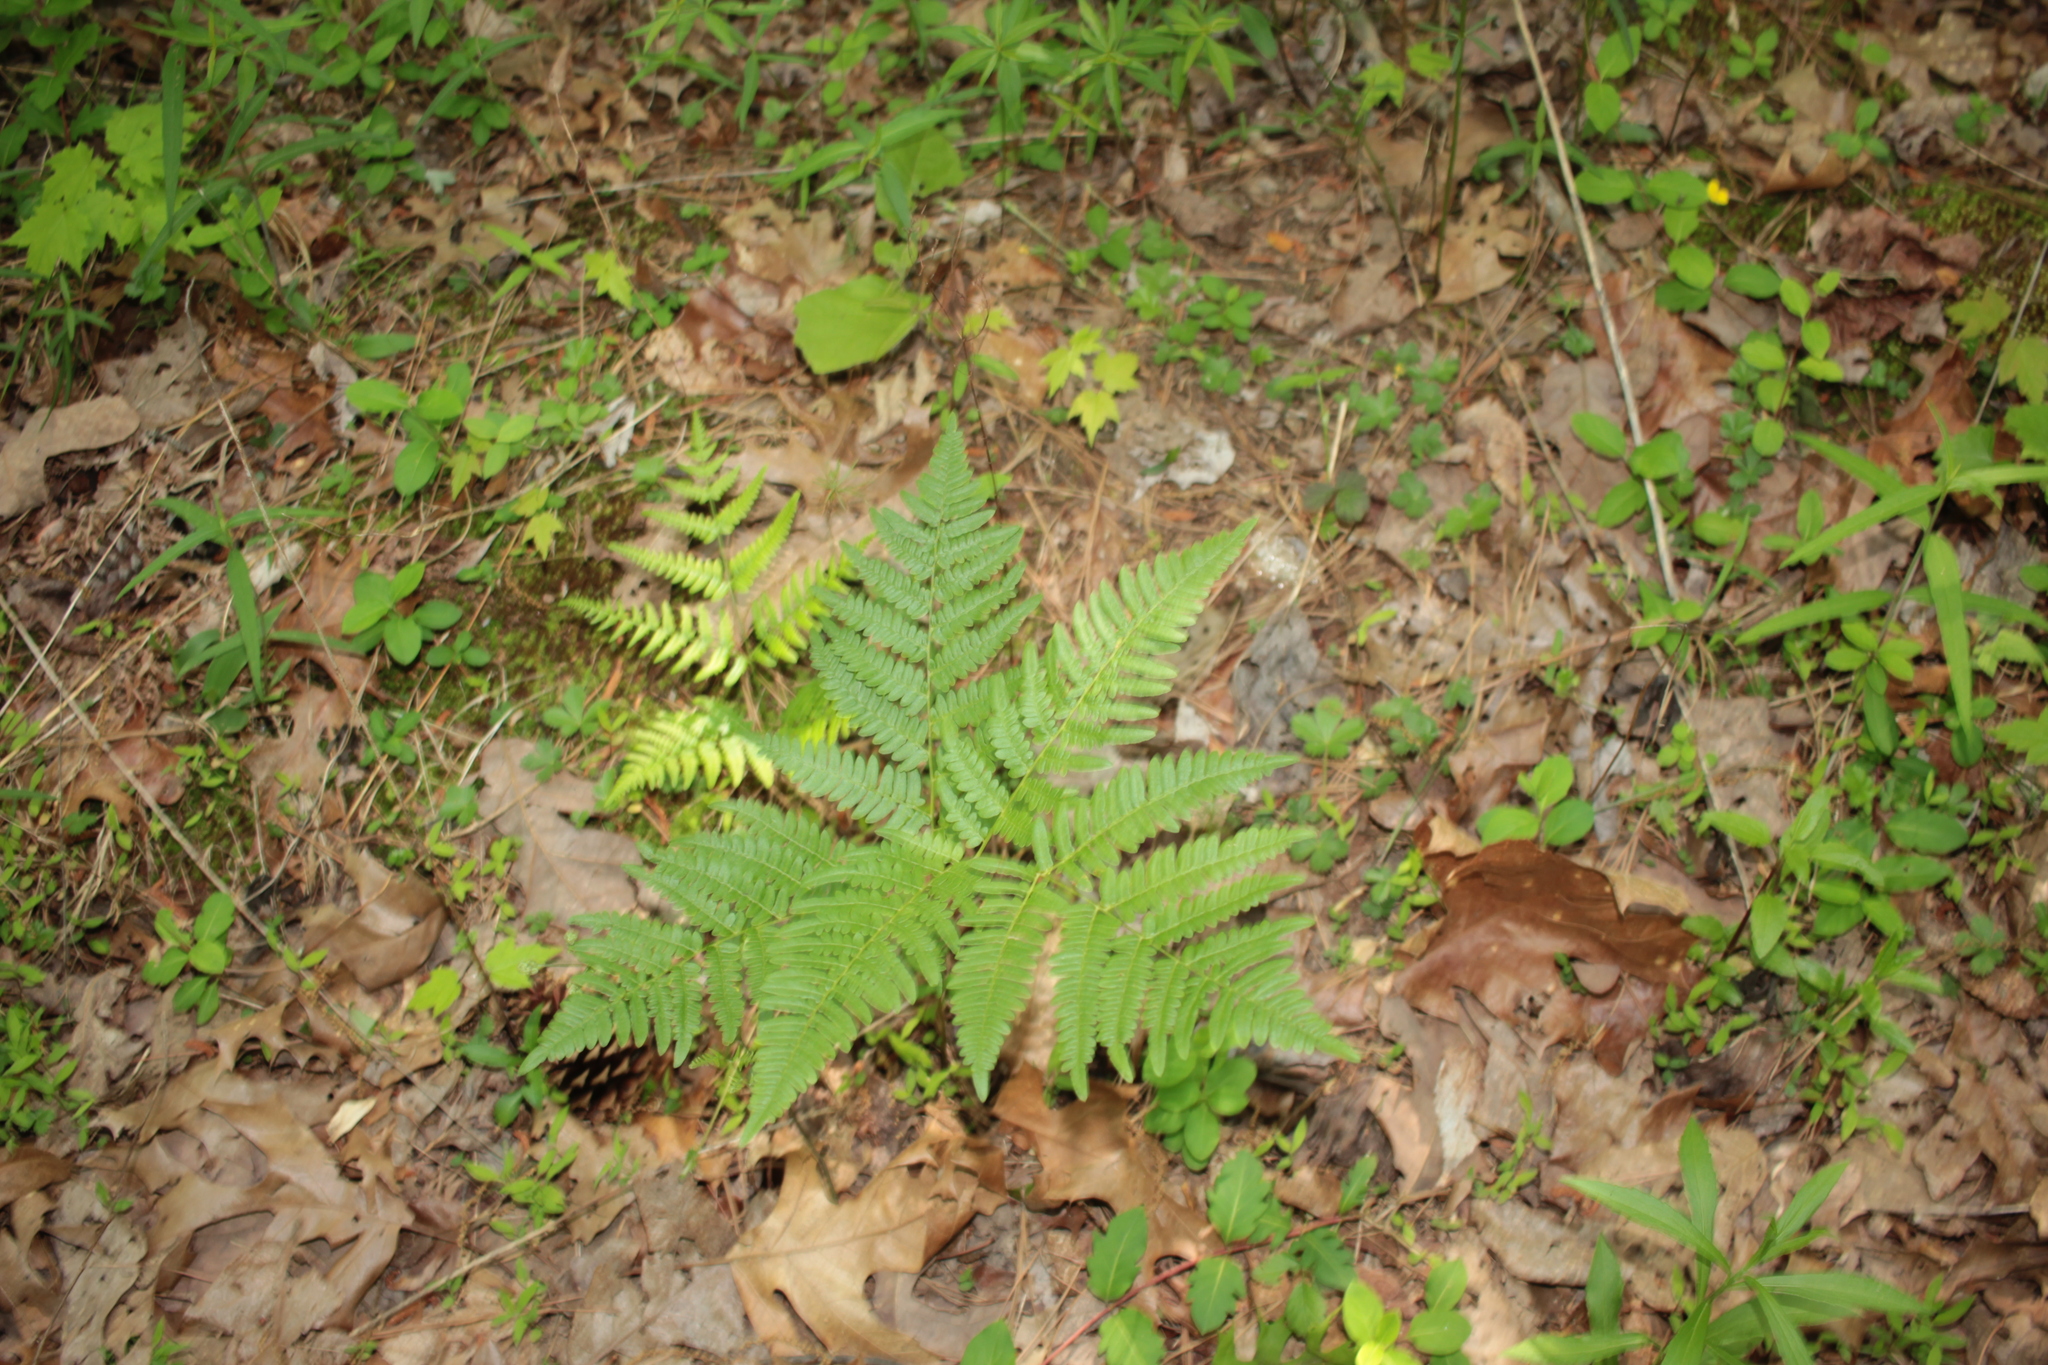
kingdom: Plantae
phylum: Tracheophyta
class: Polypodiopsida
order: Polypodiales
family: Dennstaedtiaceae
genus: Pteridium
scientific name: Pteridium
